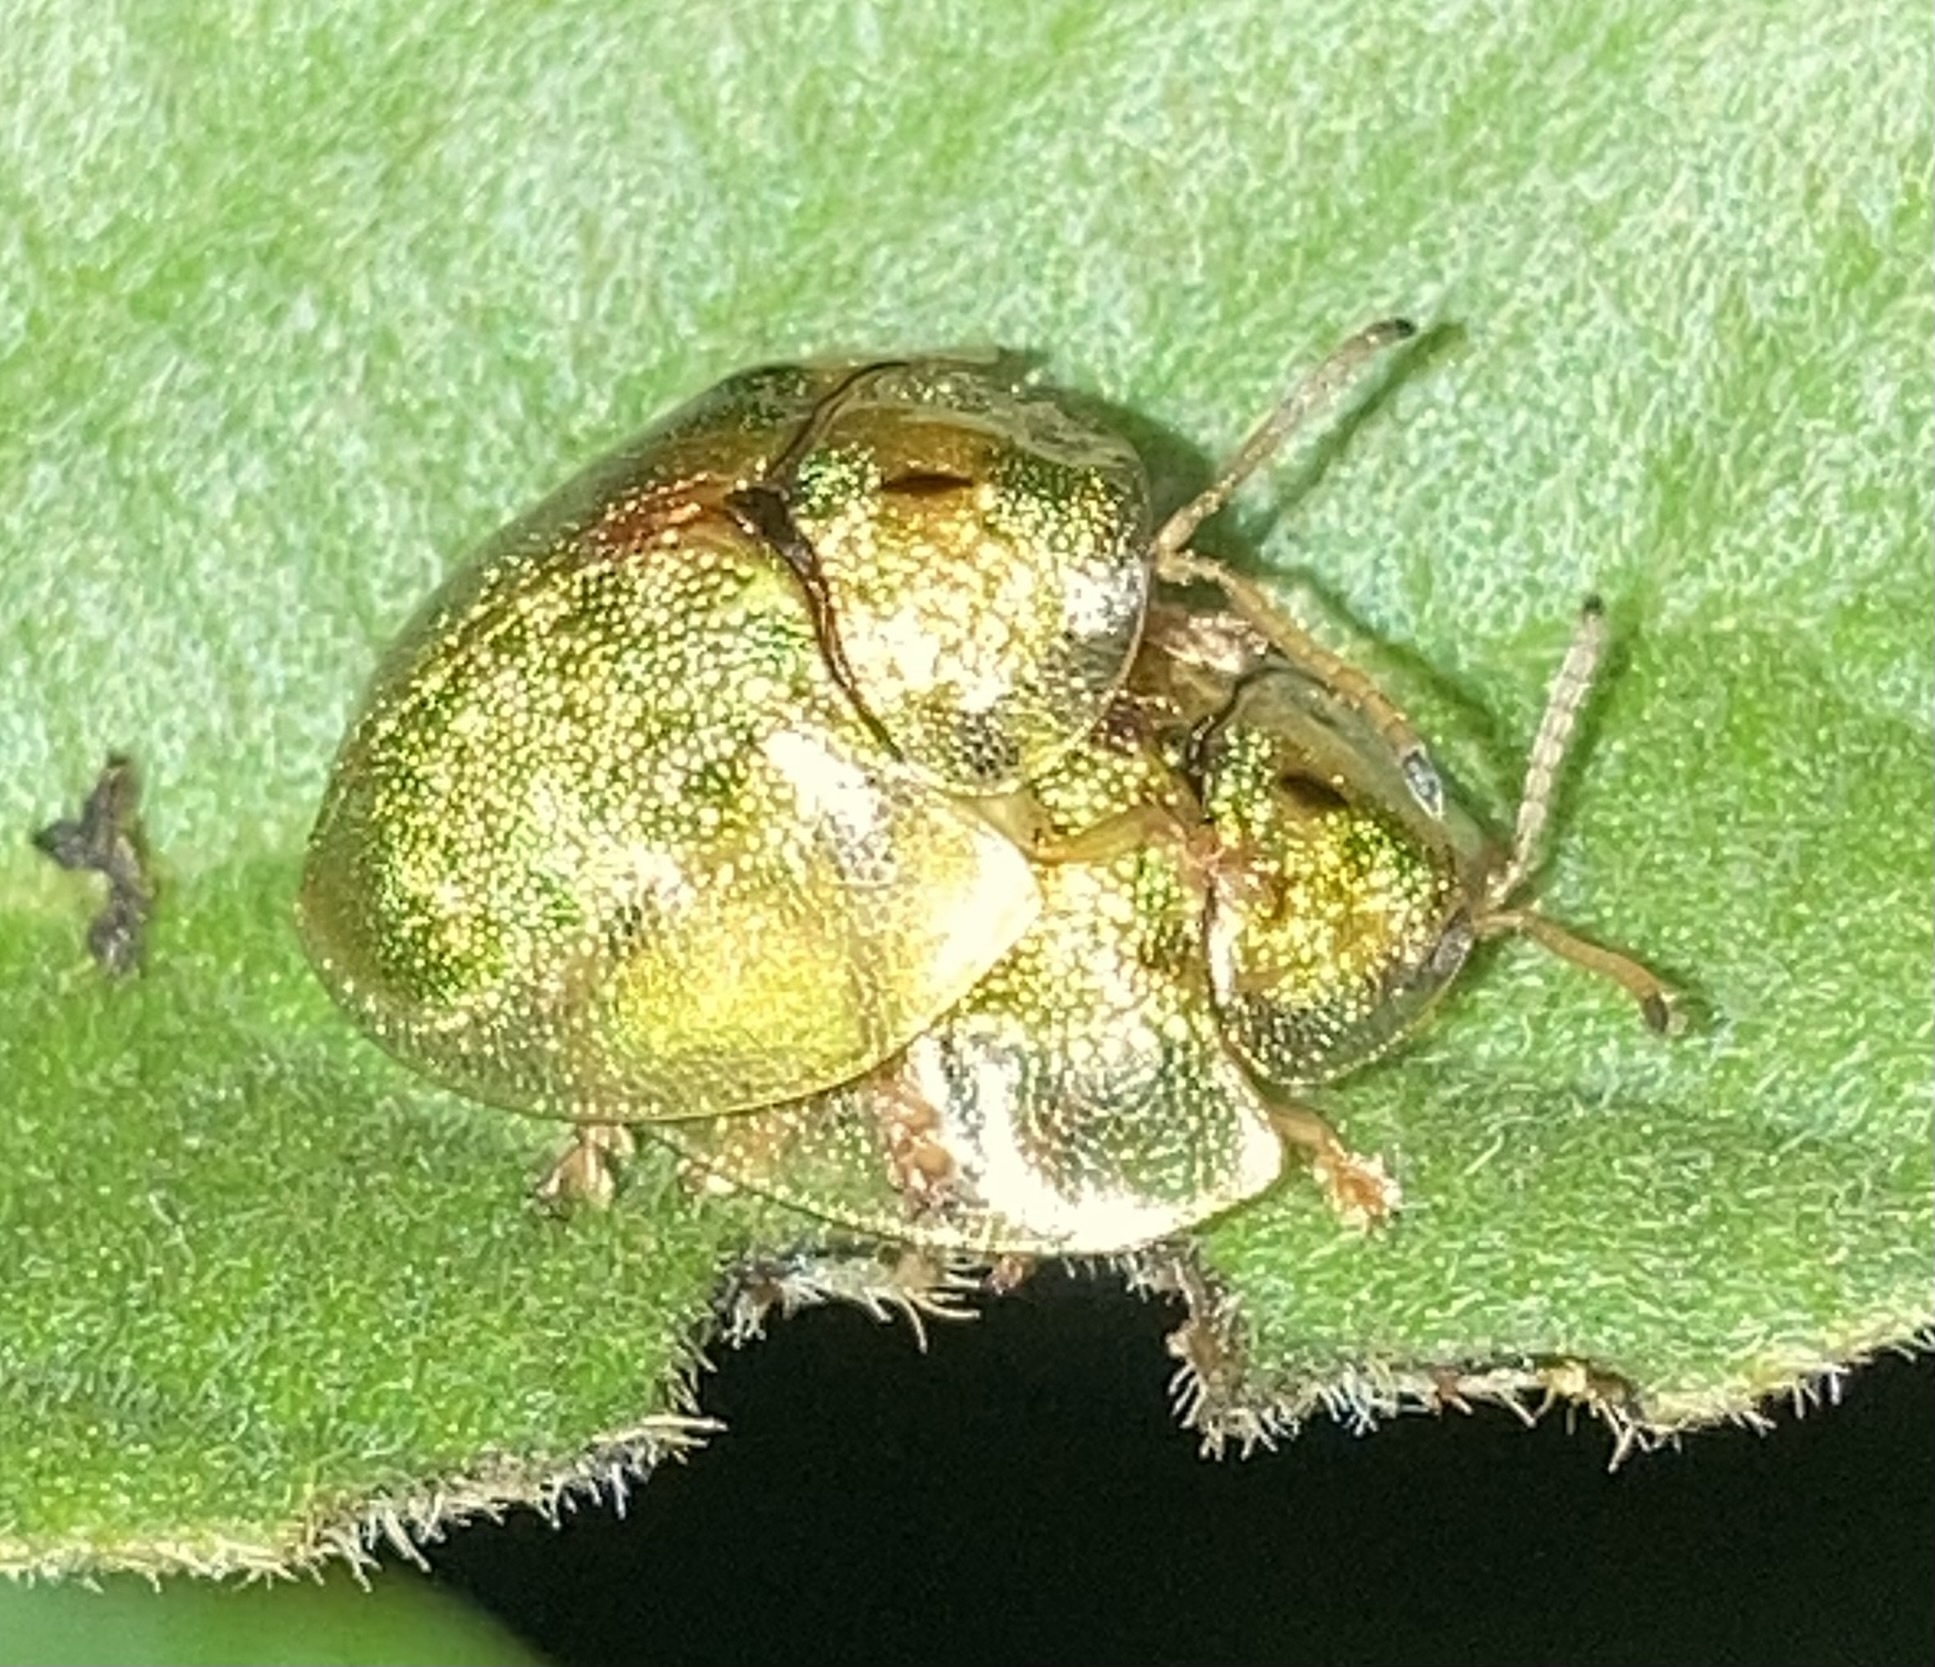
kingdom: Animalia
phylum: Arthropoda
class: Insecta
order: Coleoptera
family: Chrysomelidae
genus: Eurypepla
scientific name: Eurypepla calochroma
